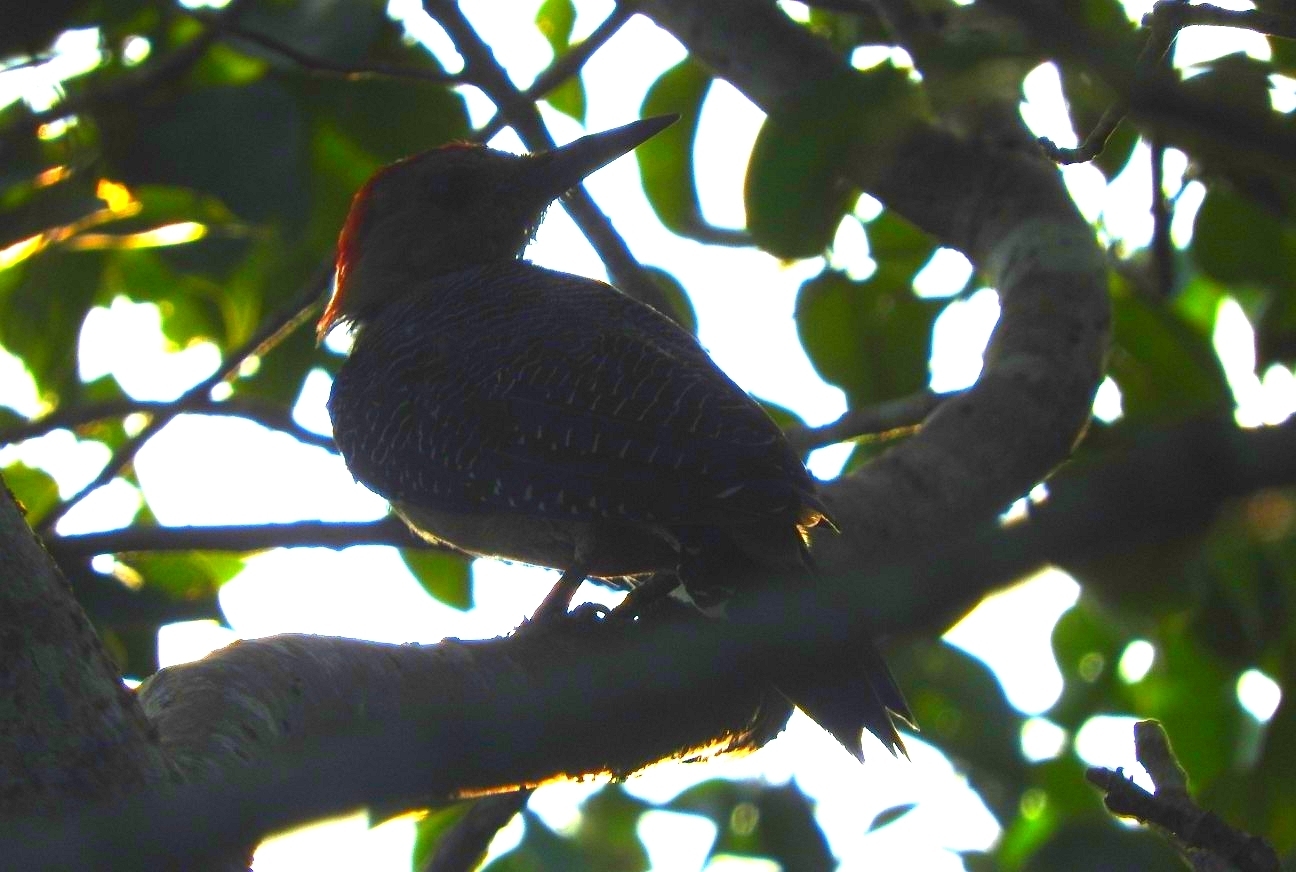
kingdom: Animalia
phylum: Chordata
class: Aves
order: Piciformes
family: Picidae
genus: Melanerpes
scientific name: Melanerpes aurifrons
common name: Golden-fronted woodpecker
